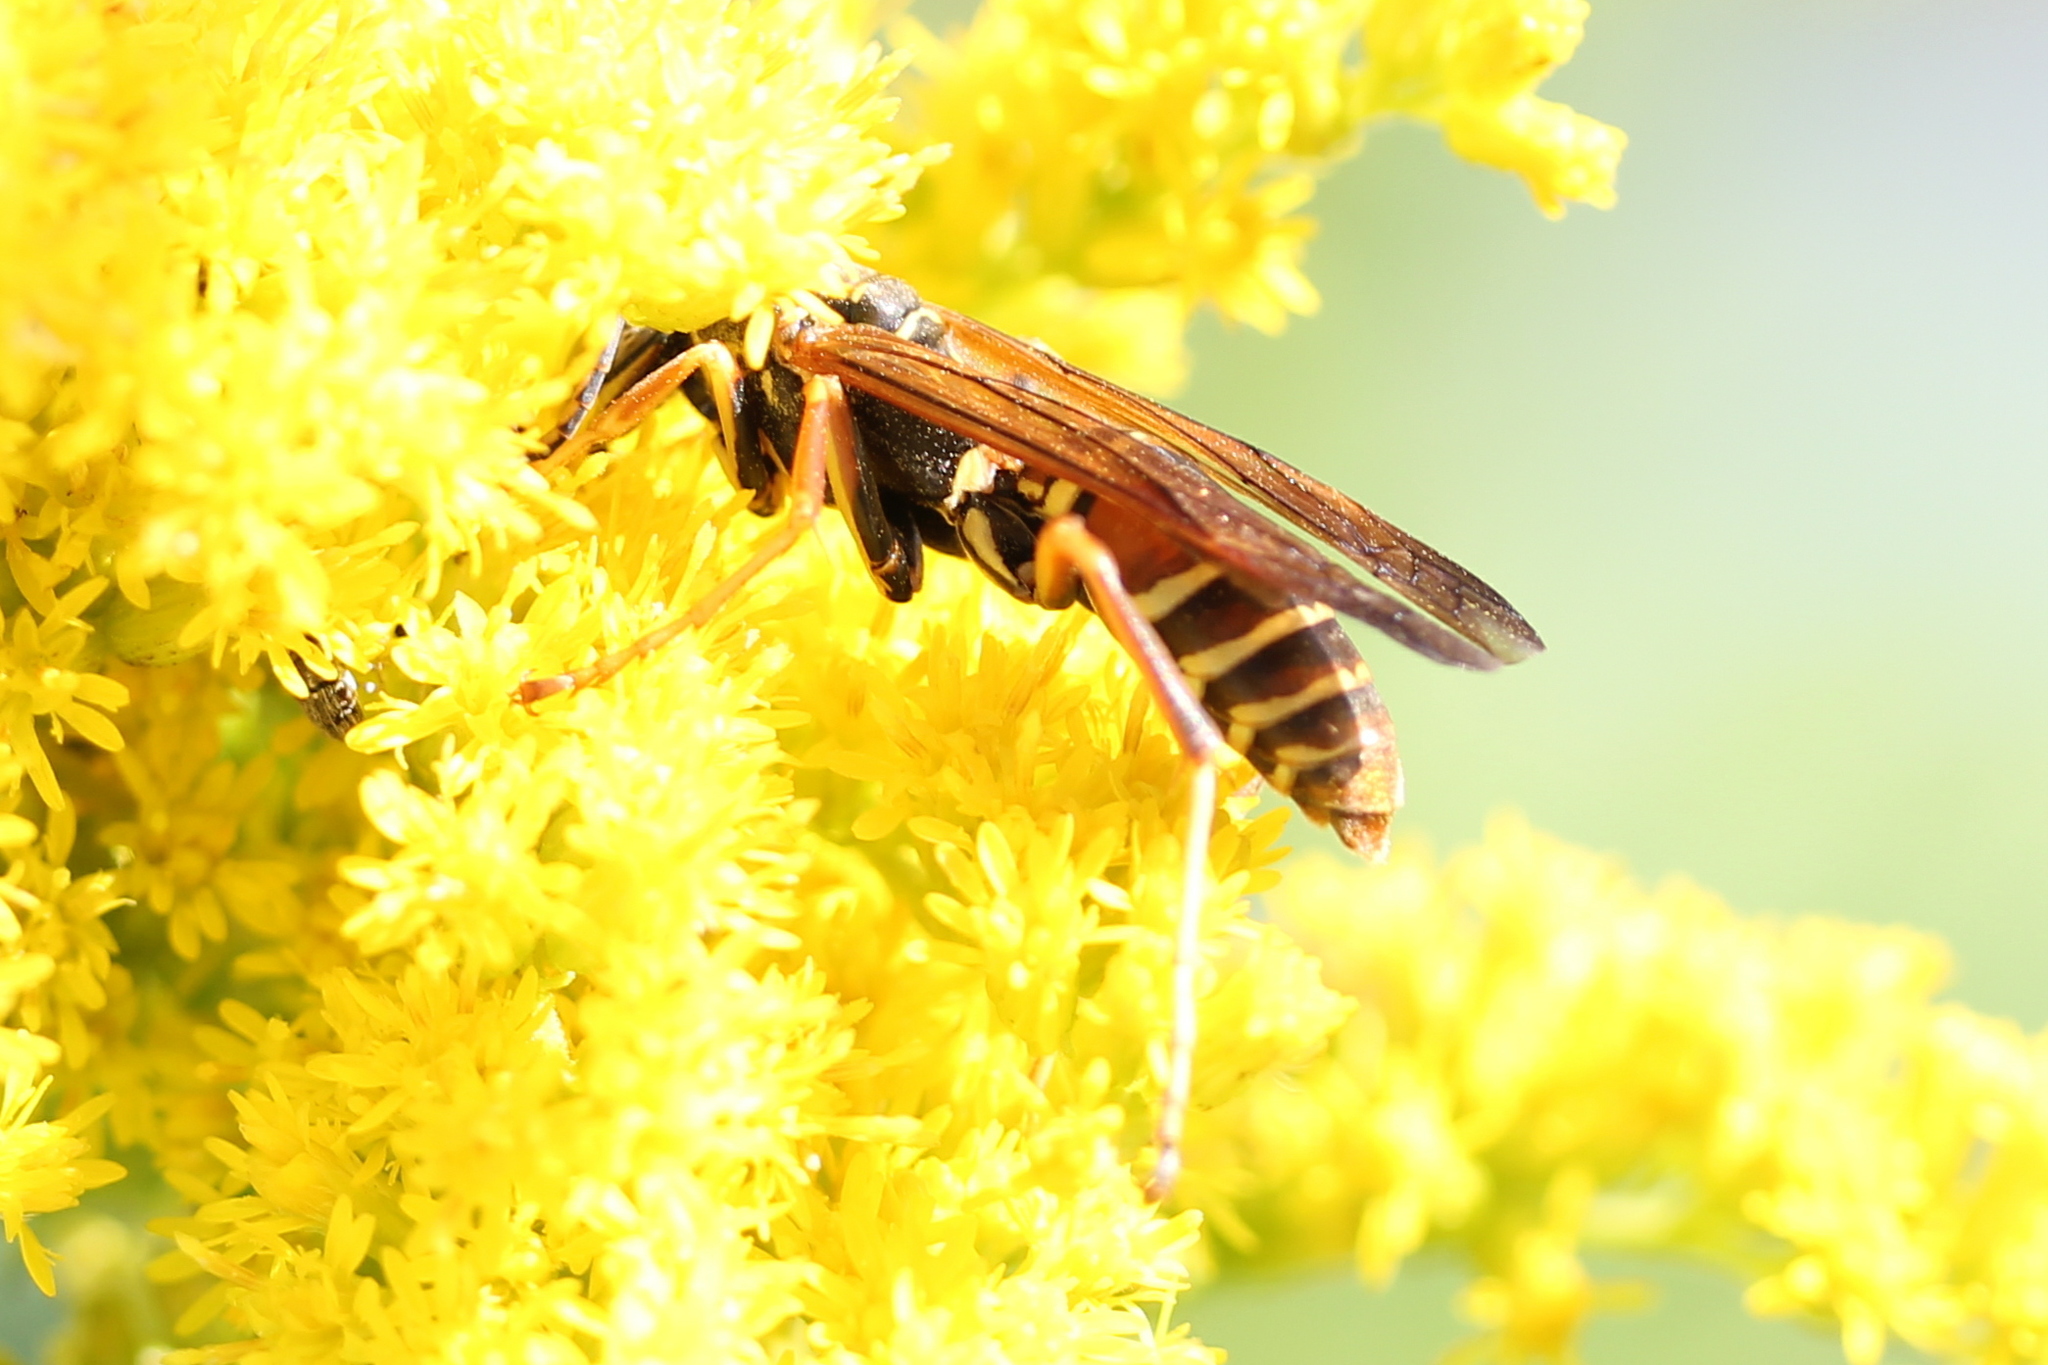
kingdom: Animalia
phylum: Arthropoda
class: Insecta
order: Hymenoptera
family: Eumenidae
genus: Polistes
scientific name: Polistes fuscatus
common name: Dark paper wasp
